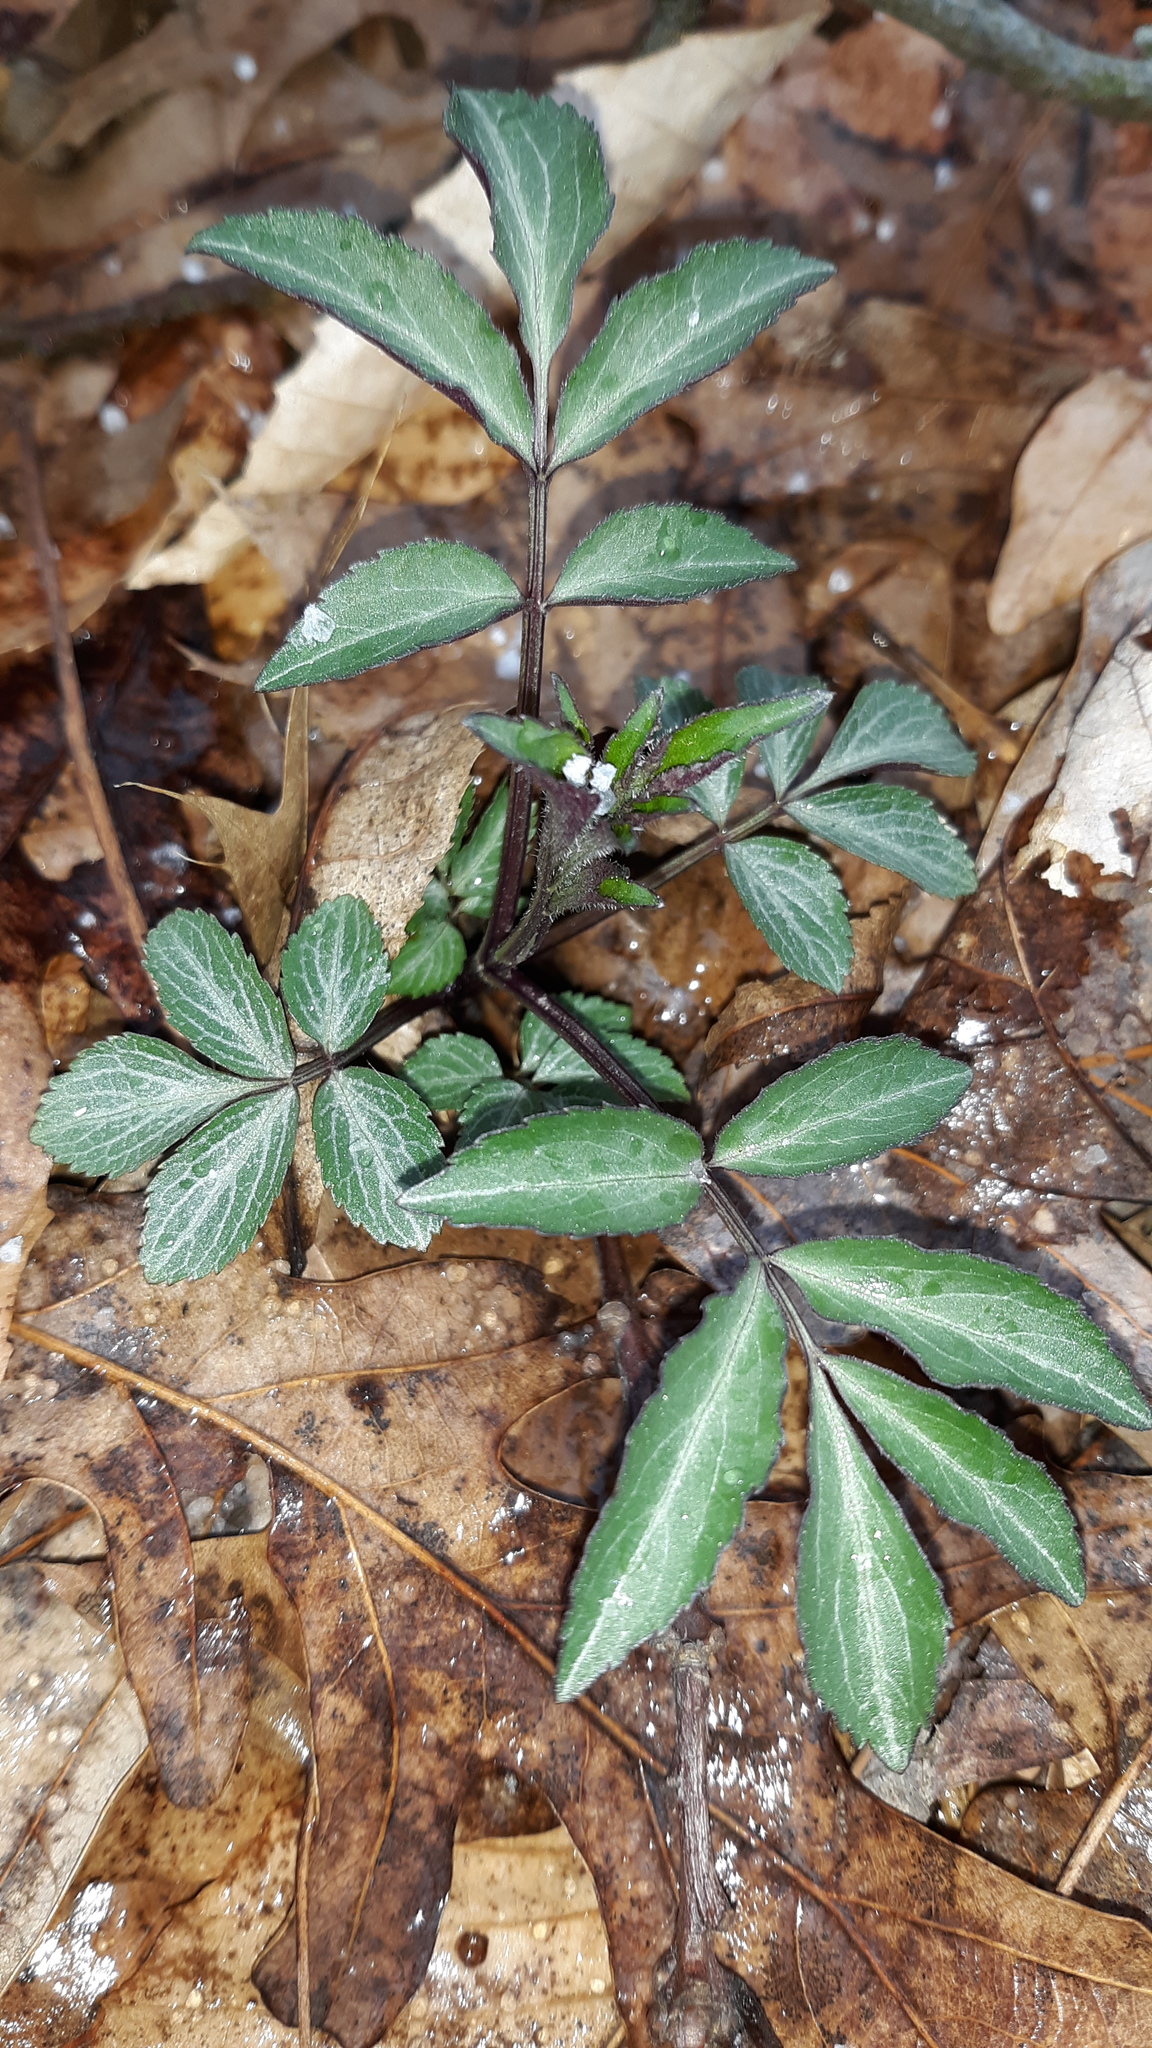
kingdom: Plantae
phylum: Tracheophyta
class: Magnoliopsida
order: Dipsacales
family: Viburnaceae
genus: Sambucus
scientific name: Sambucus canadensis
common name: American elder
